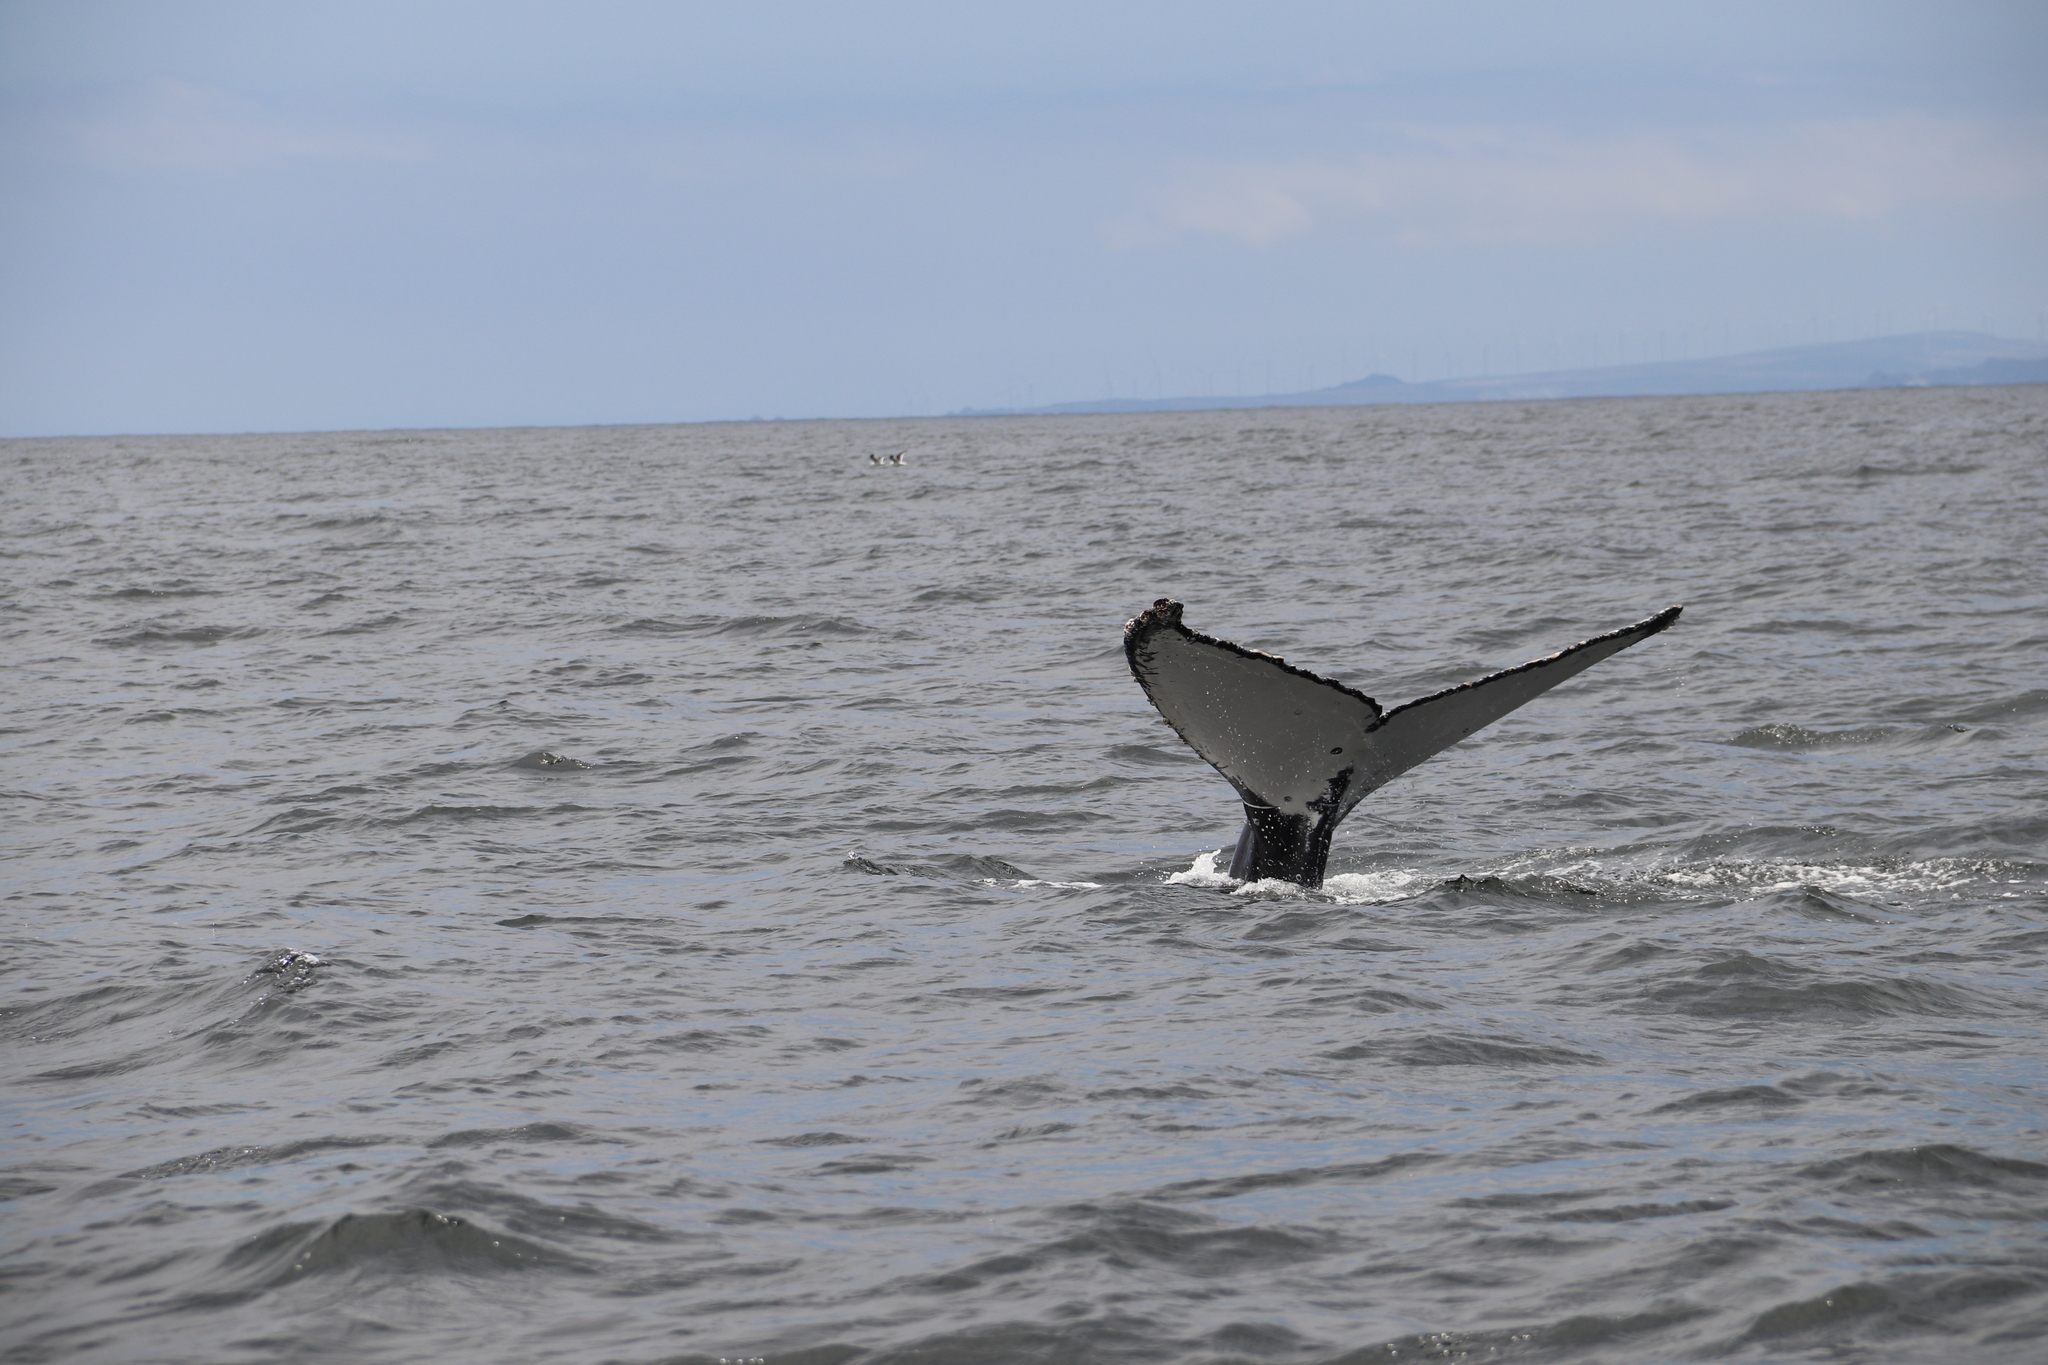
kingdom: Animalia
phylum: Chordata
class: Mammalia
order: Cetacea
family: Balaenopteridae
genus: Megaptera
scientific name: Megaptera novaeangliae
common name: Humpback whale
